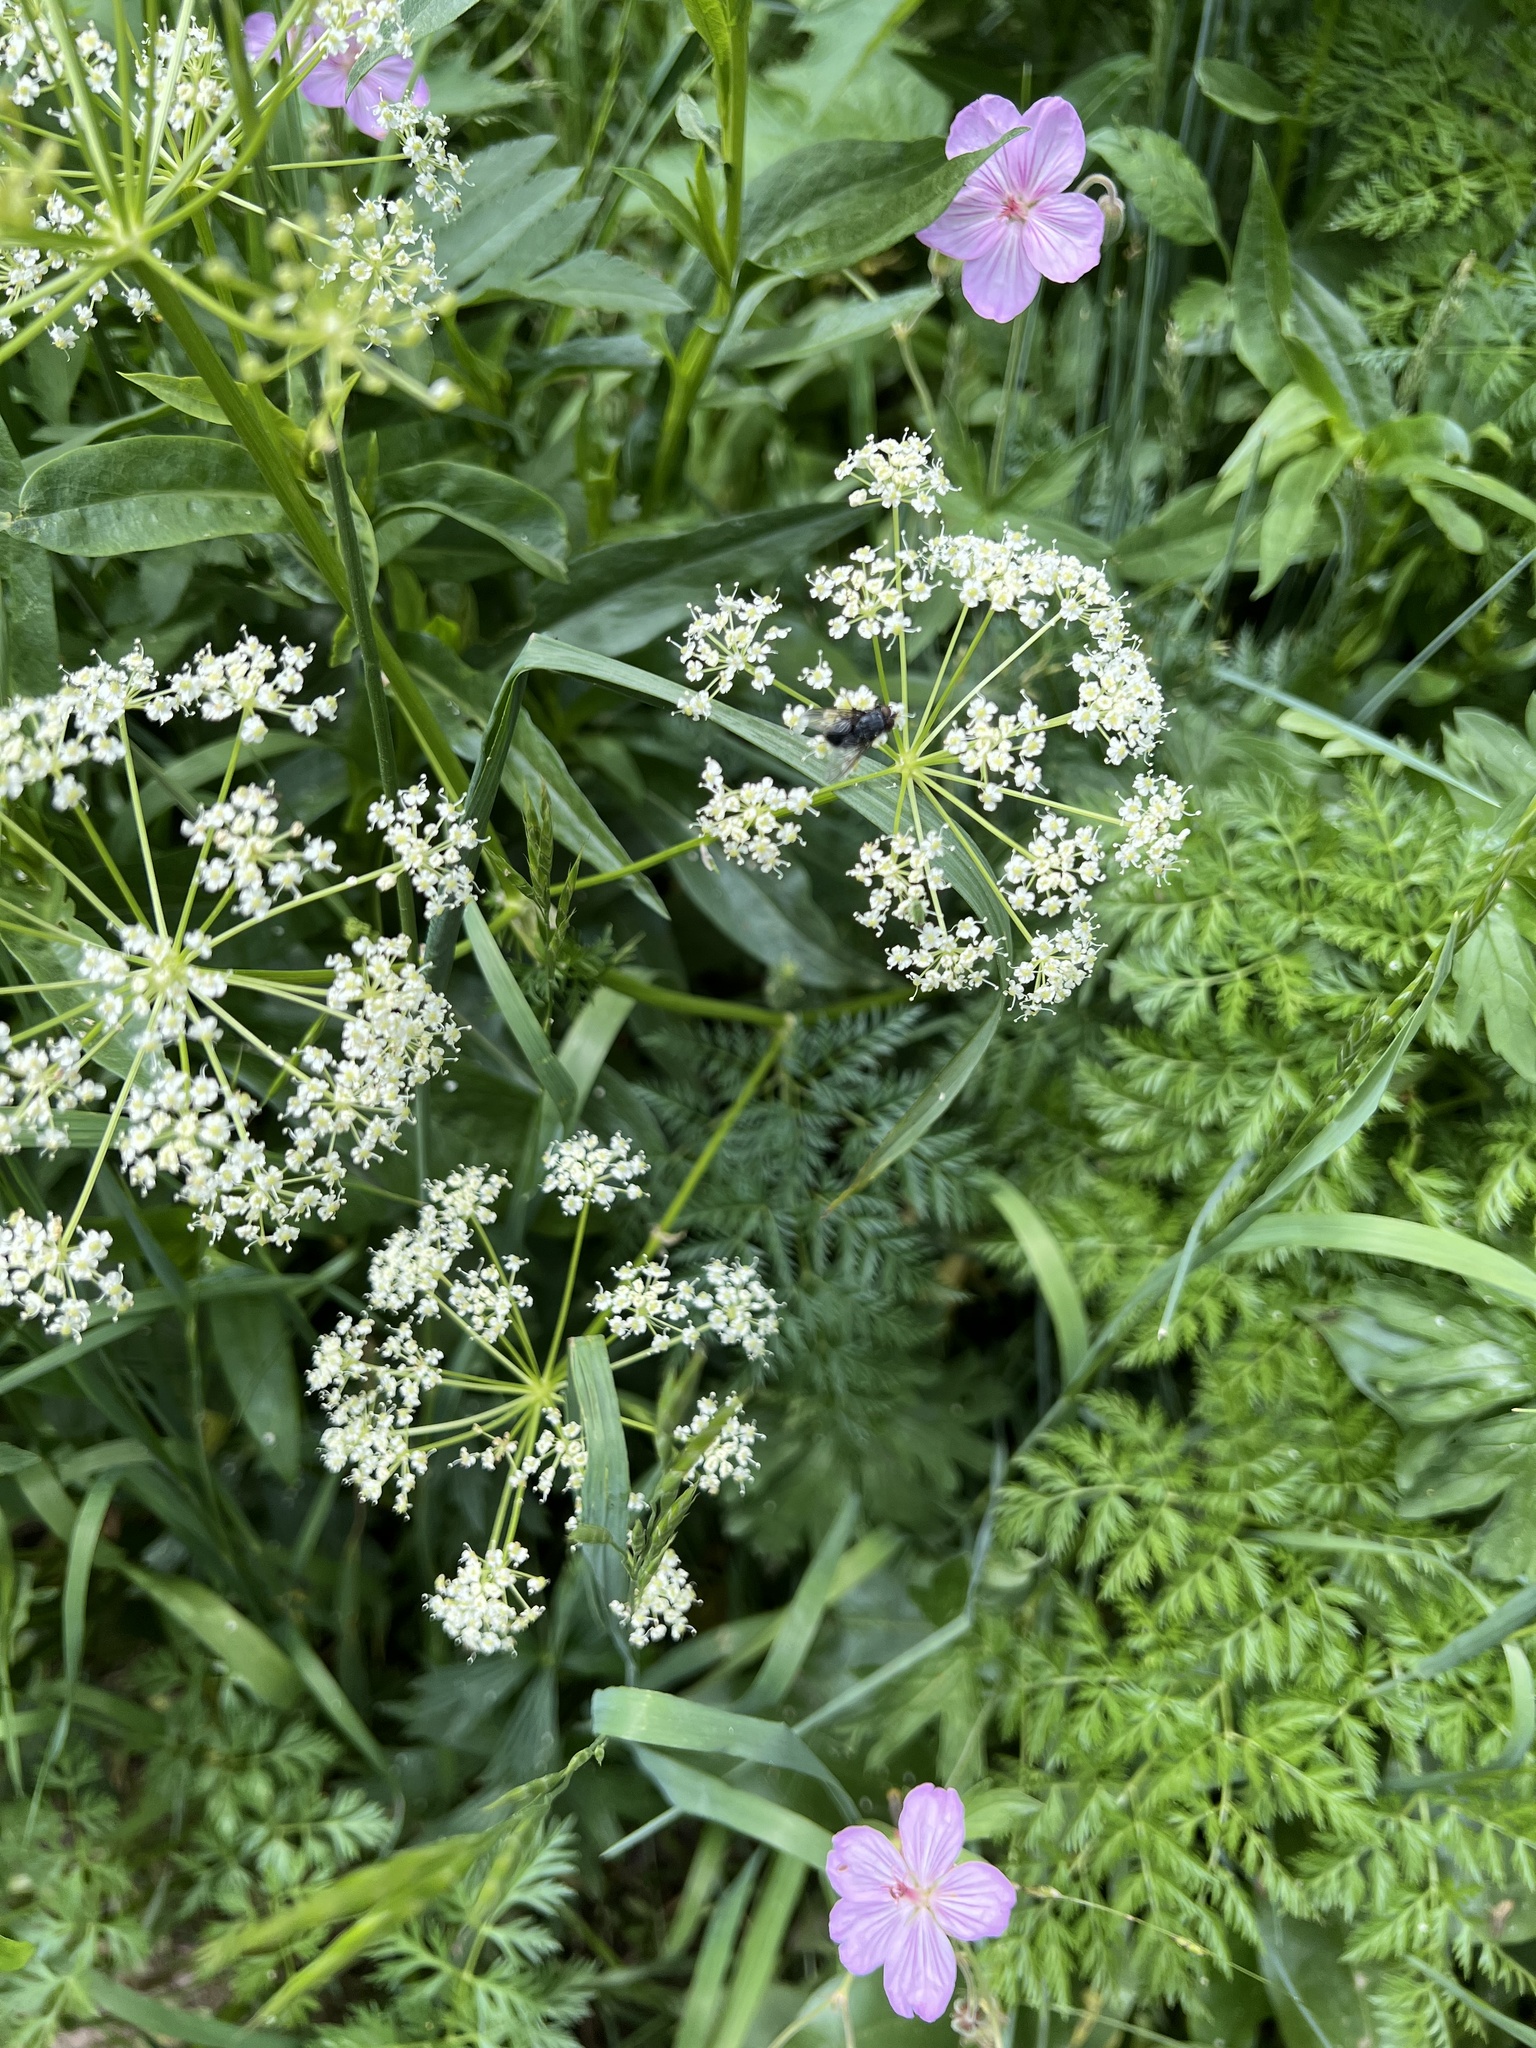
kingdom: Plantae
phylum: Tracheophyta
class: Magnoliopsida
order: Apiales
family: Apiaceae
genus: Conium
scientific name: Conium maculatum
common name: Hemlock
